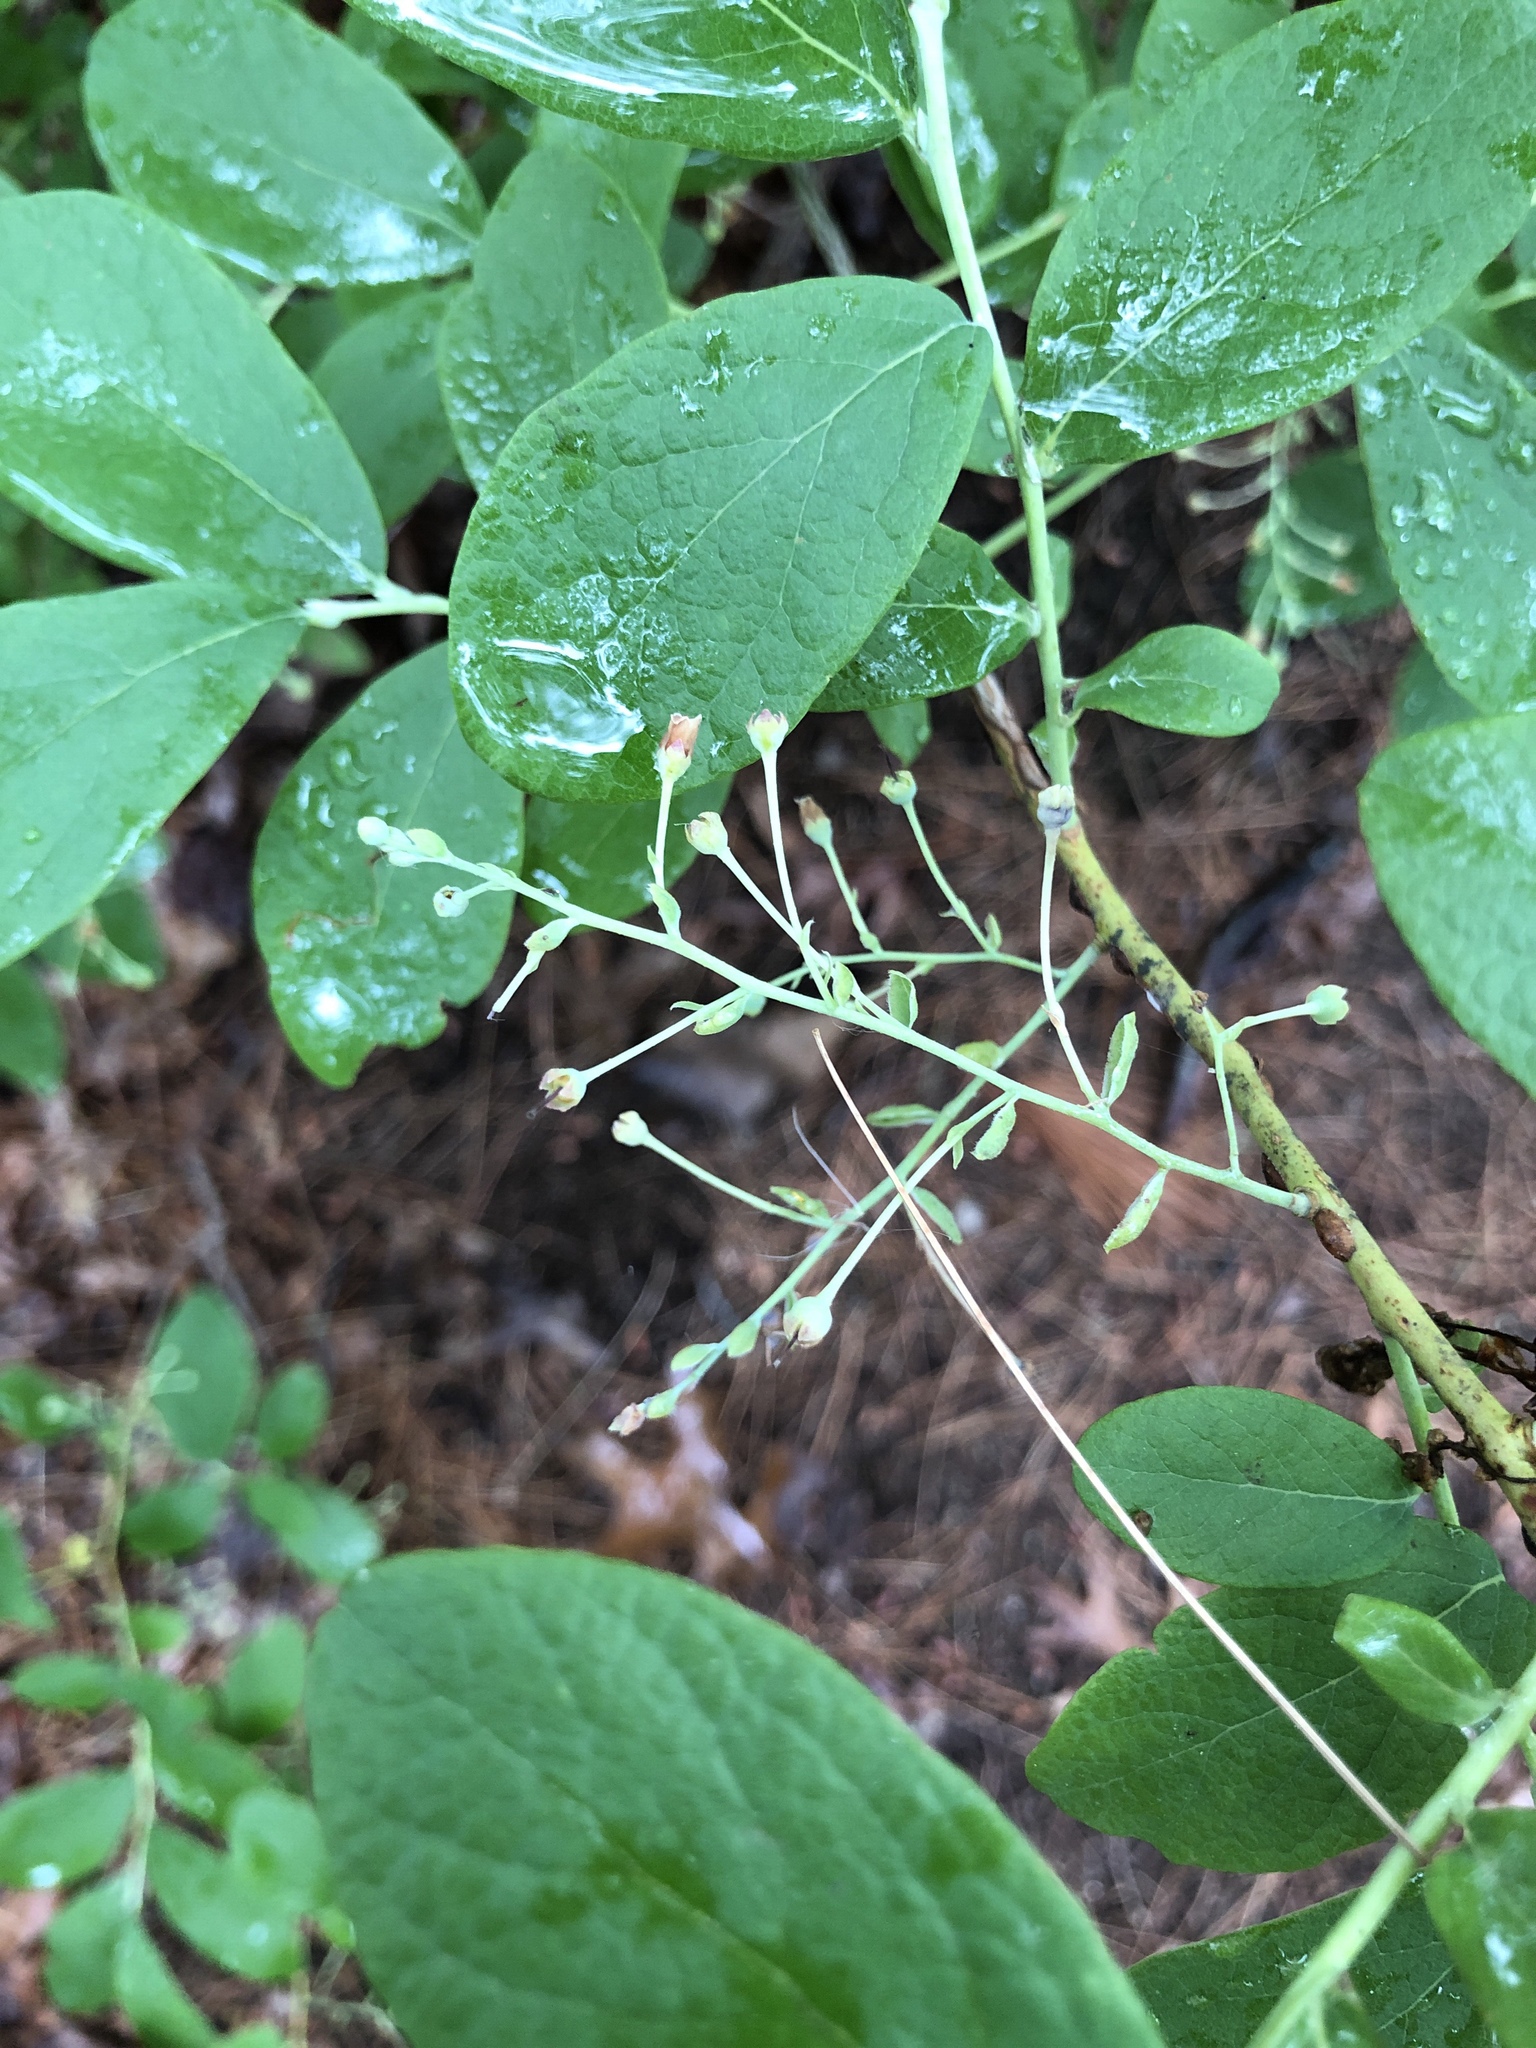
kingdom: Plantae
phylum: Tracheophyta
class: Magnoliopsida
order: Ericales
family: Ericaceae
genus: Gaylussacia
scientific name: Gaylussacia frondosa
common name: Dangleberry
